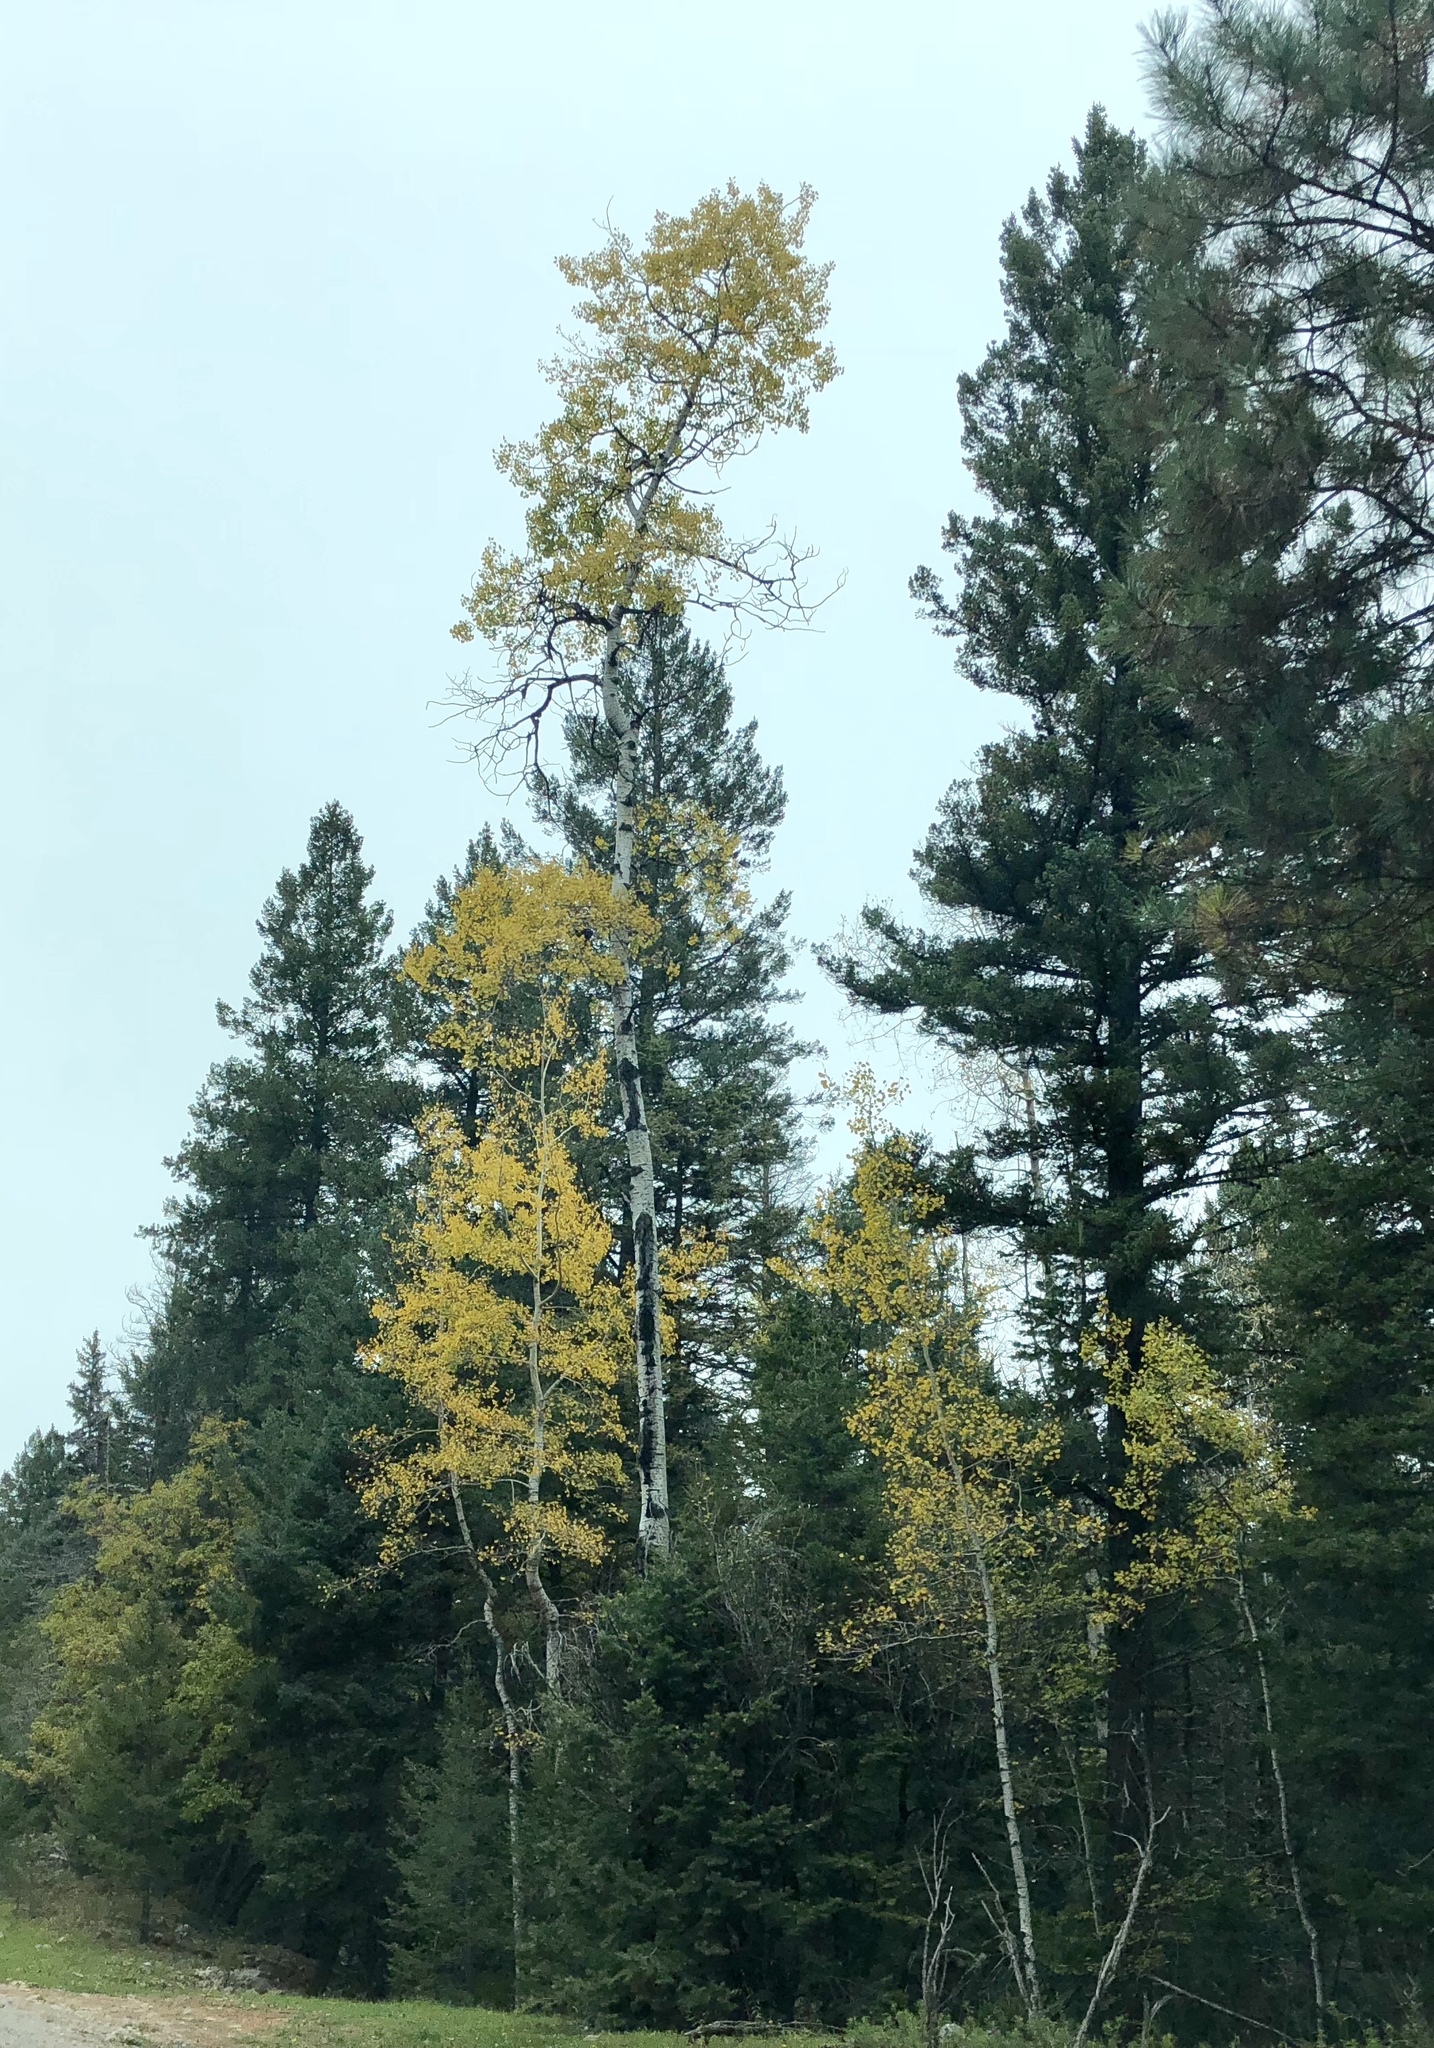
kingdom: Plantae
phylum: Tracheophyta
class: Magnoliopsida
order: Malpighiales
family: Salicaceae
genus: Populus
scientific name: Populus tremuloides
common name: Quaking aspen
